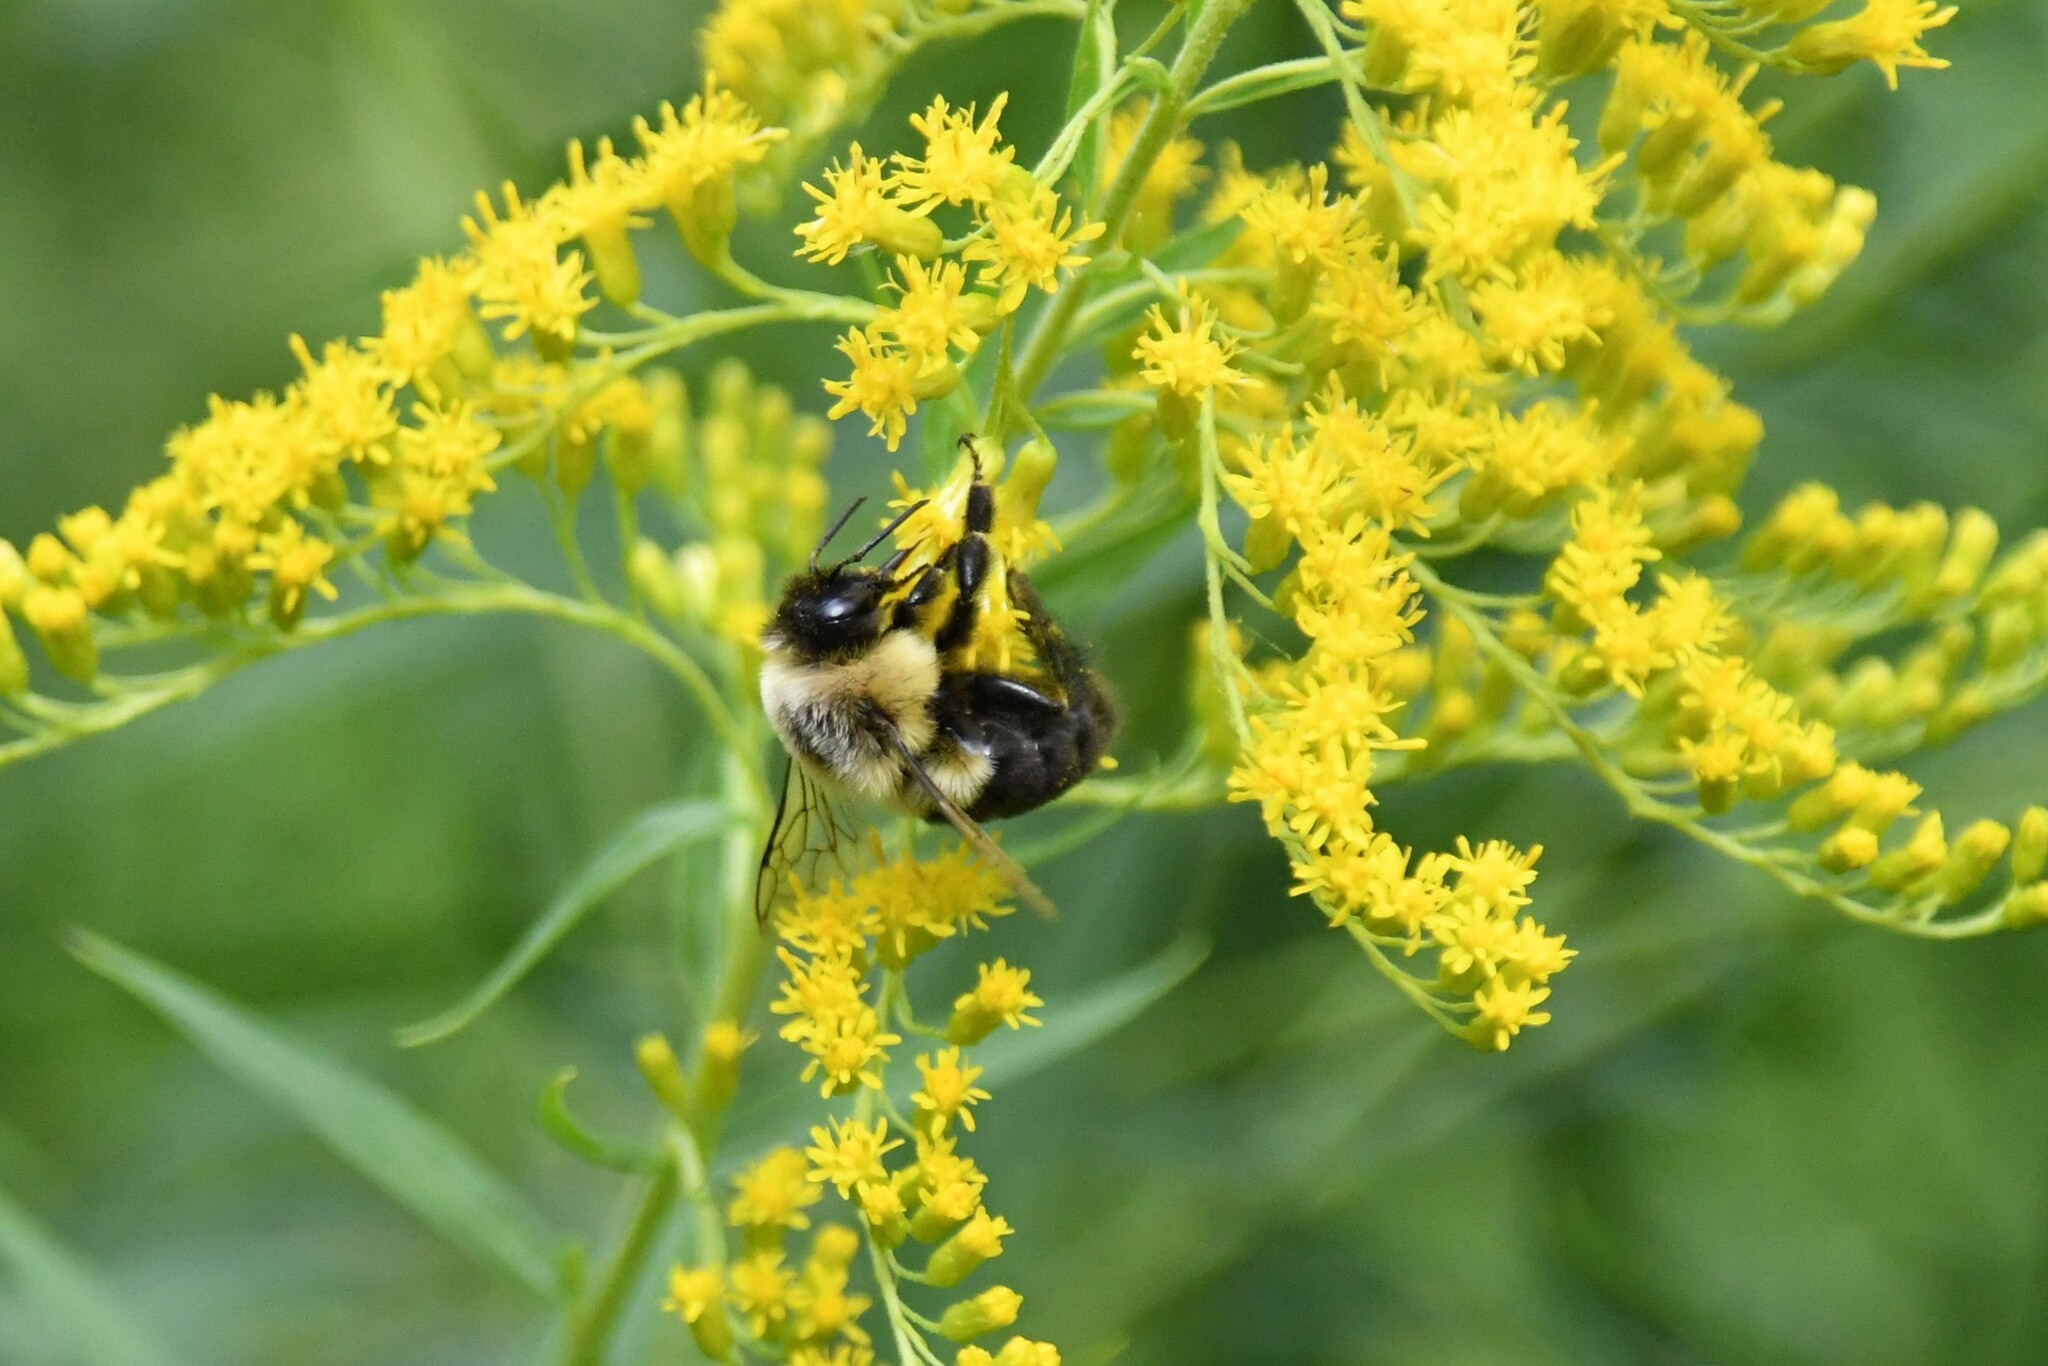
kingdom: Animalia
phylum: Arthropoda
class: Insecta
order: Hymenoptera
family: Apidae
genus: Bombus
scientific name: Bombus impatiens
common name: Common eastern bumble bee
